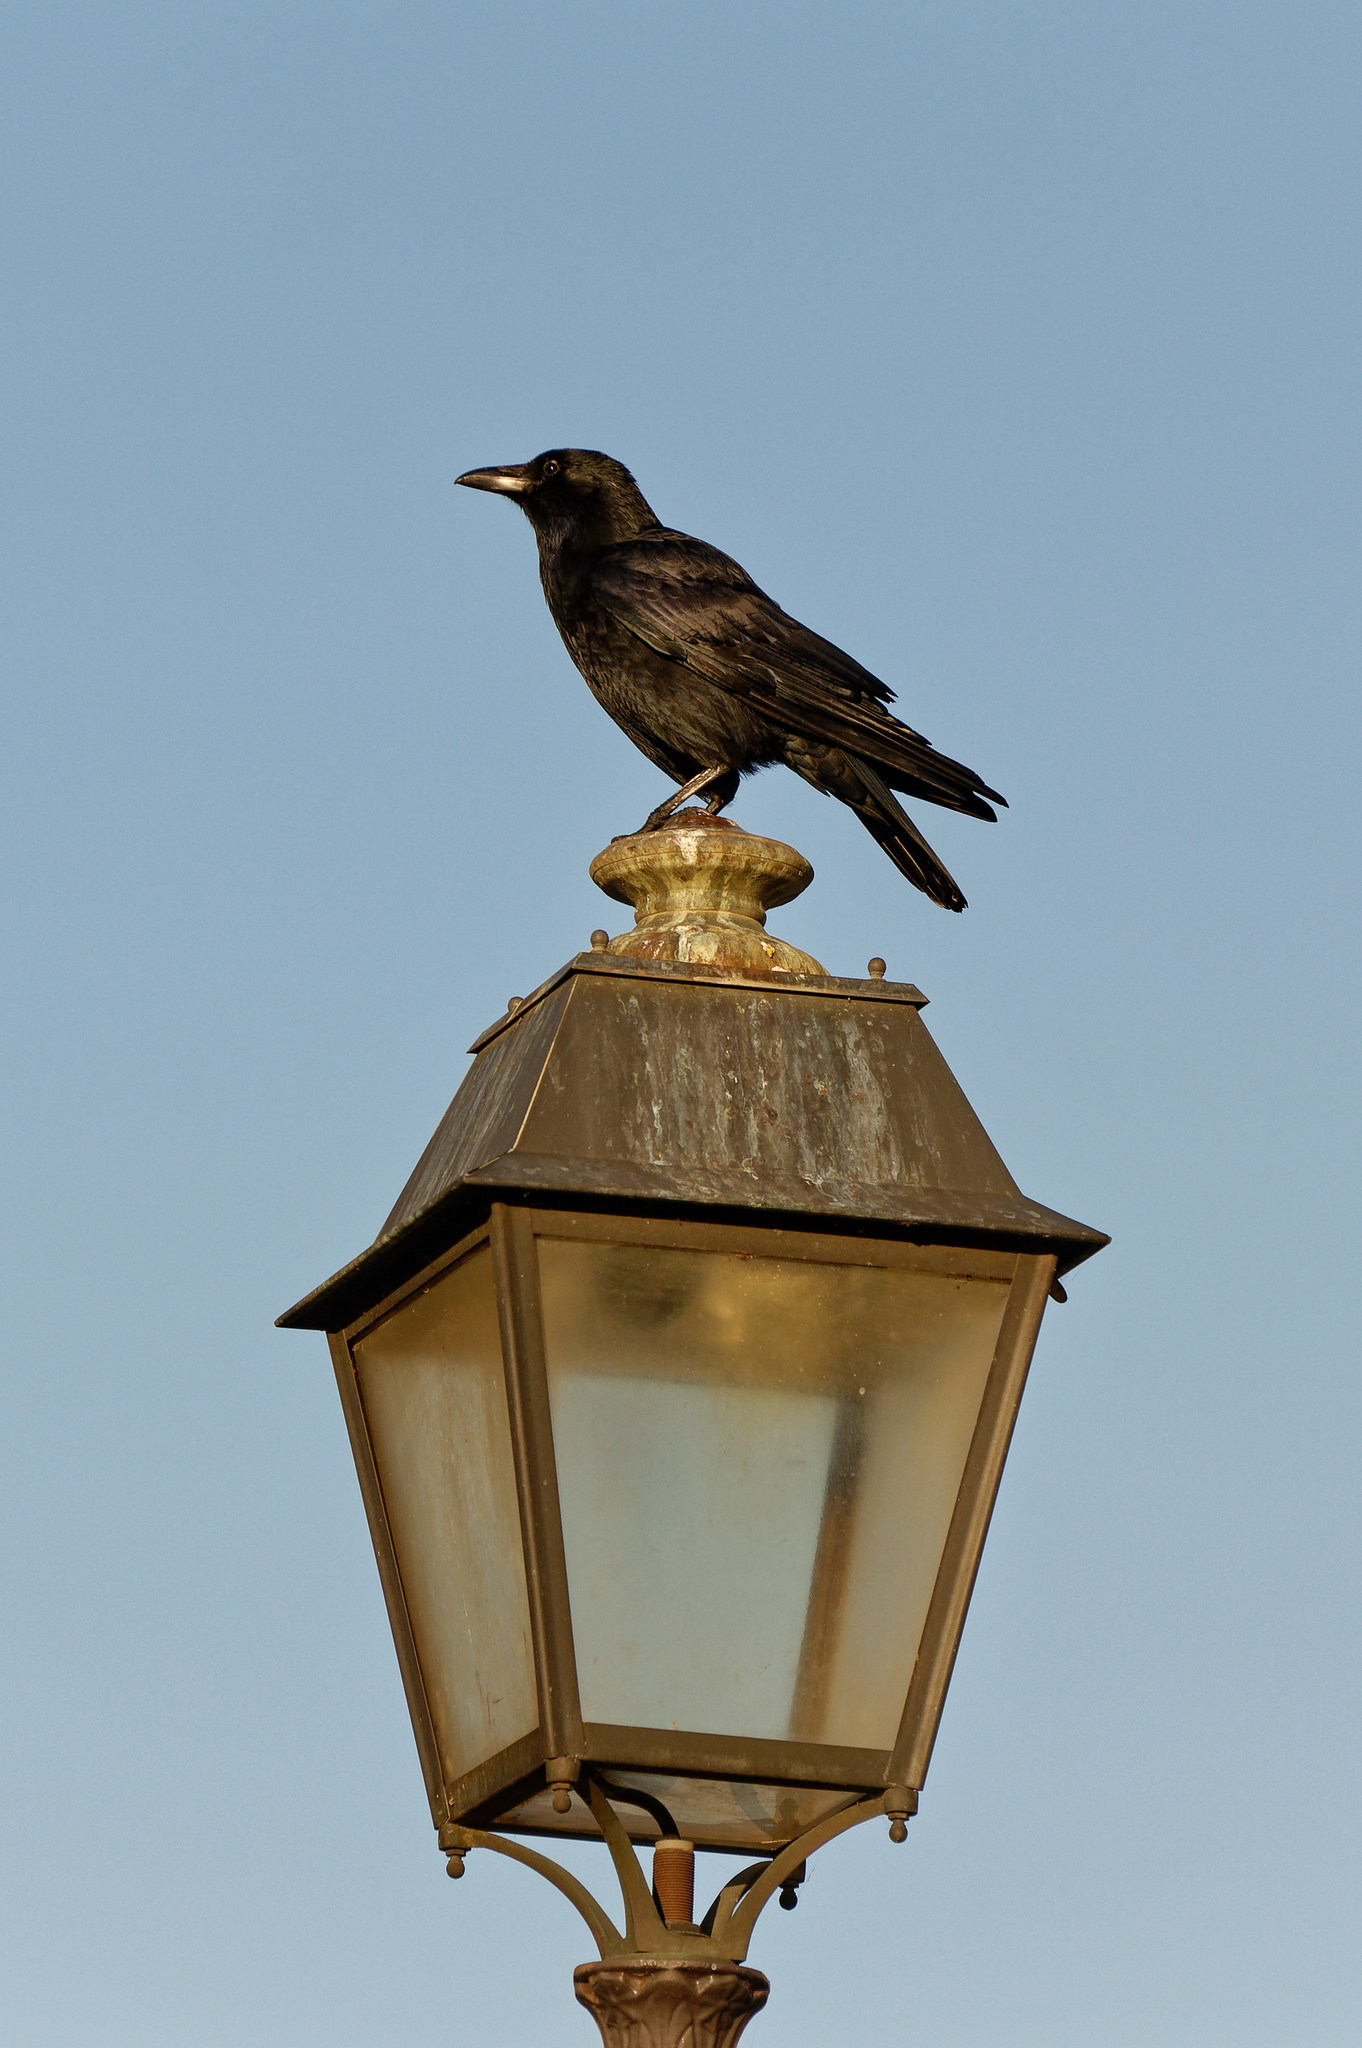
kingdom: Animalia
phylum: Chordata
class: Aves
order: Passeriformes
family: Corvidae
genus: Corvus
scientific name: Corvus corone
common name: Carrion crow
